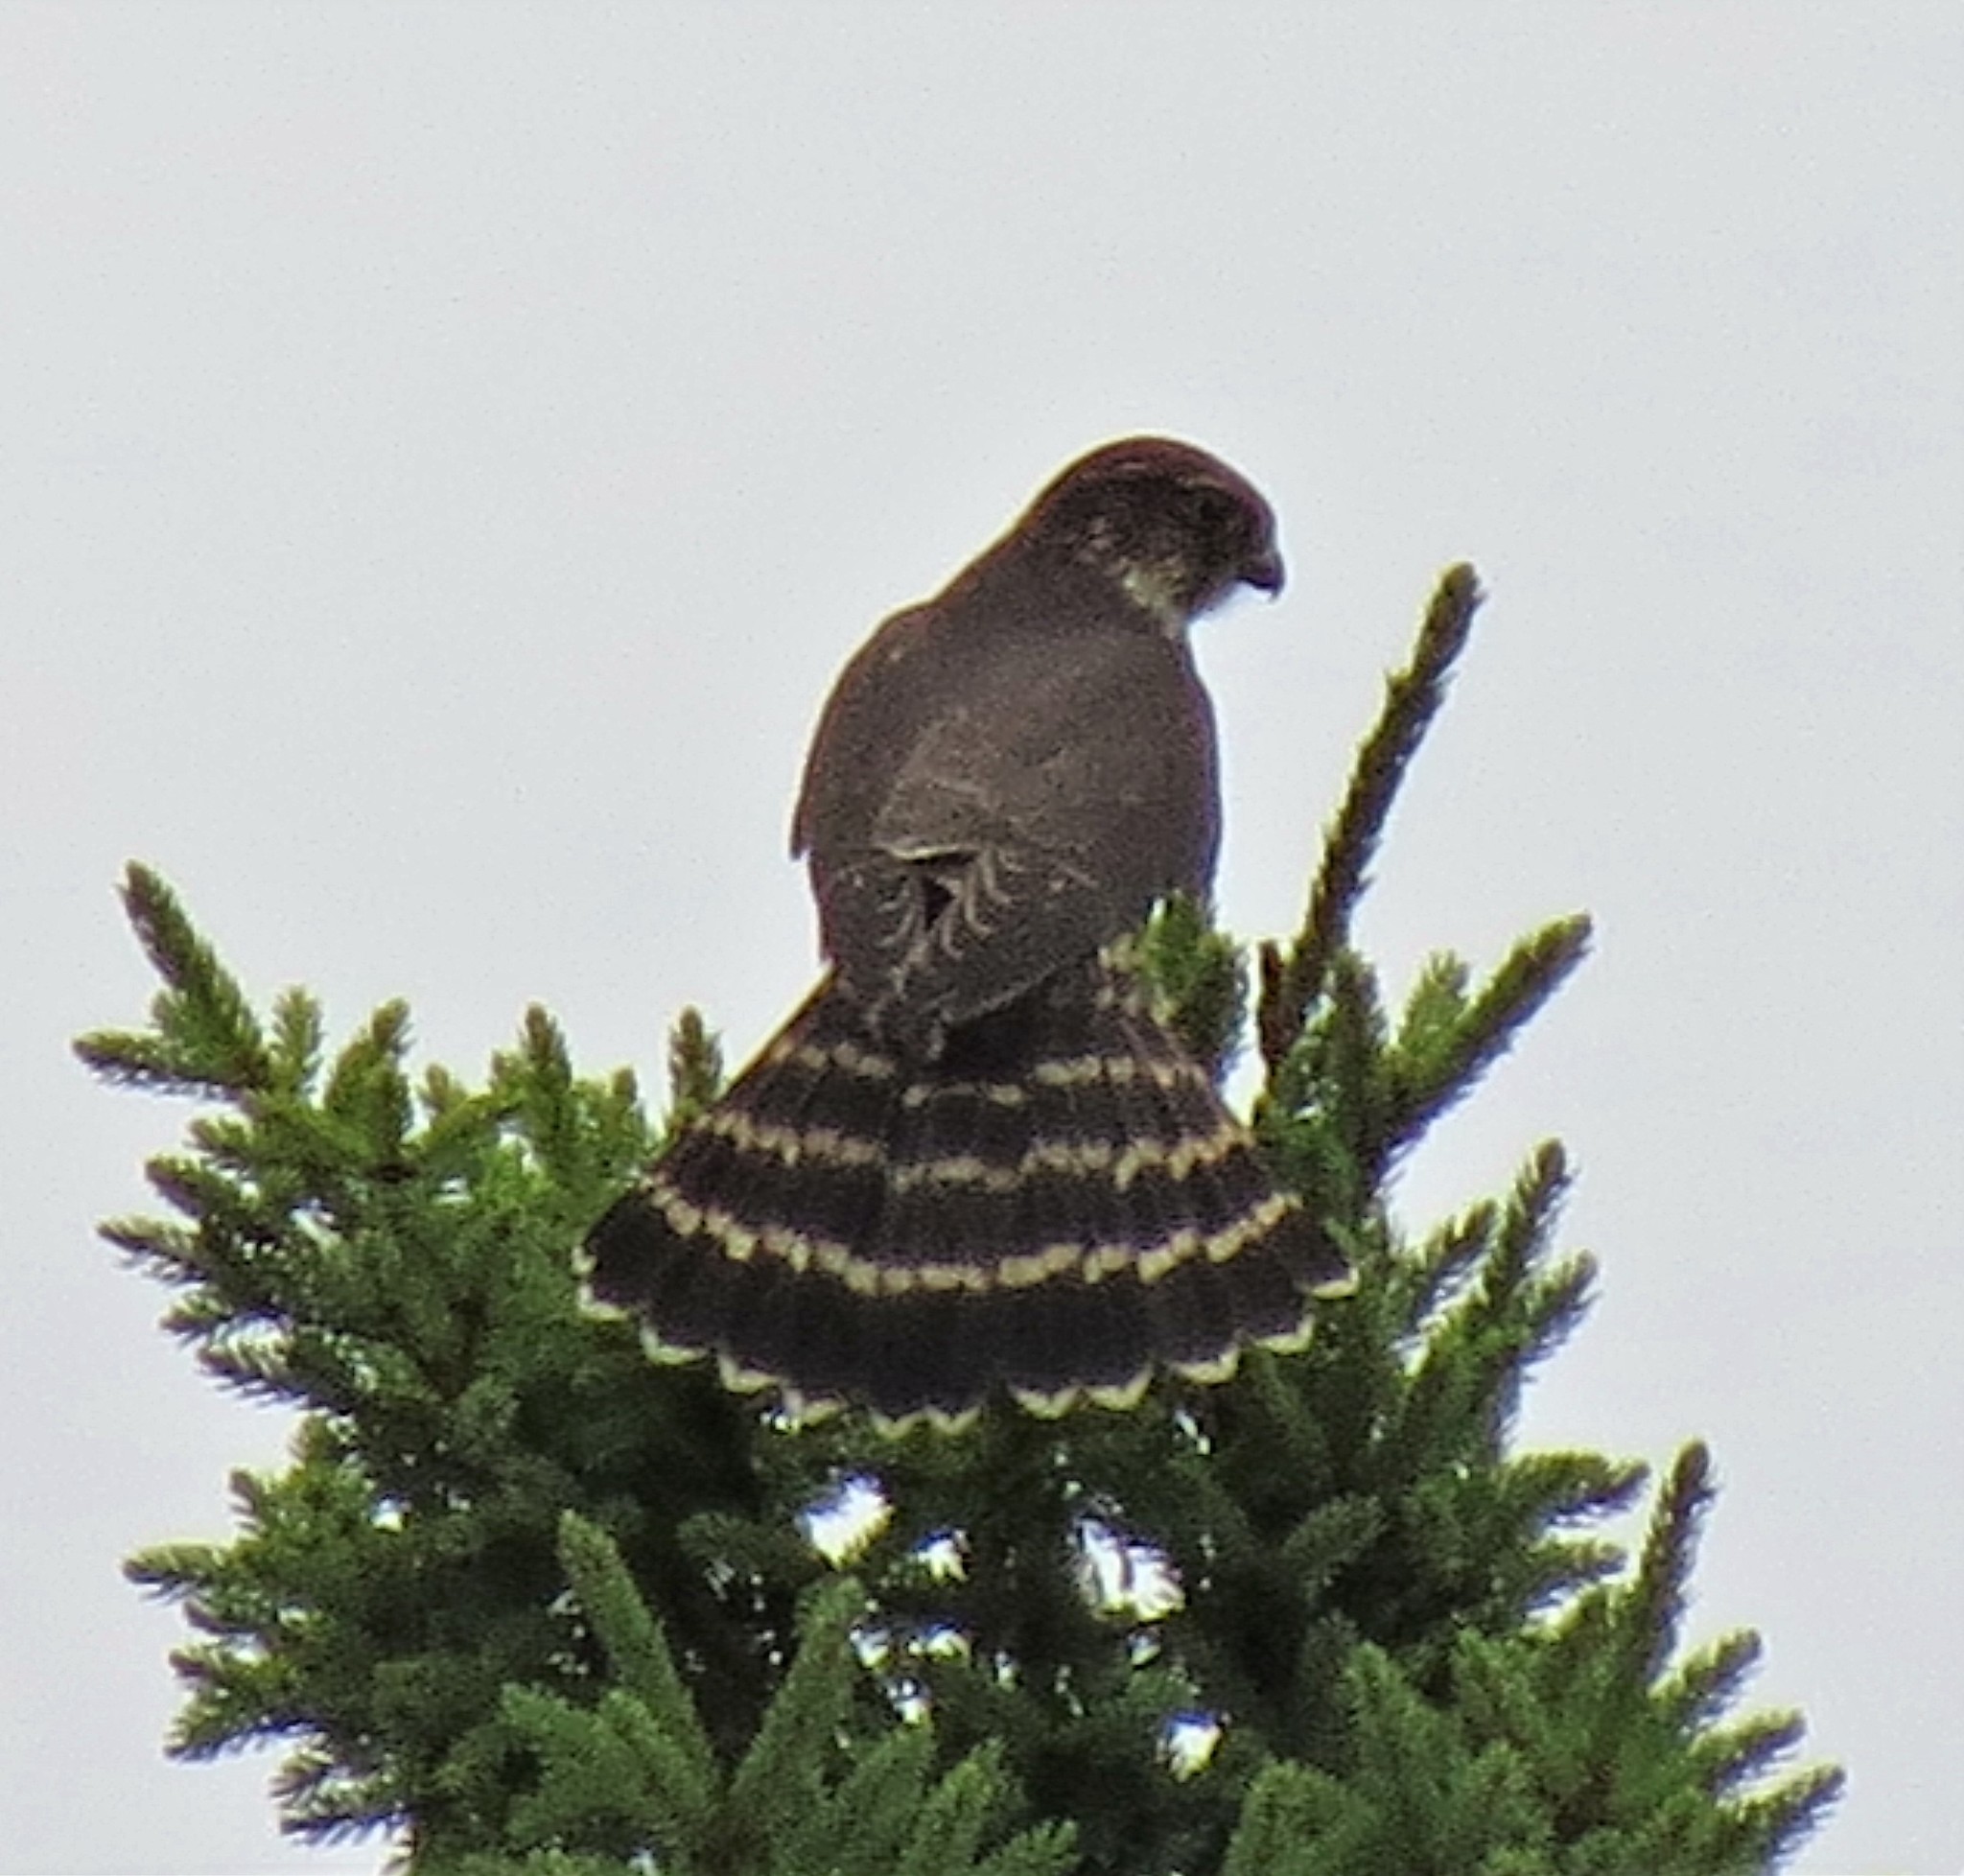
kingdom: Animalia
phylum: Chordata
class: Aves
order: Falconiformes
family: Falconidae
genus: Falco
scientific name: Falco columbarius
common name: Merlin
